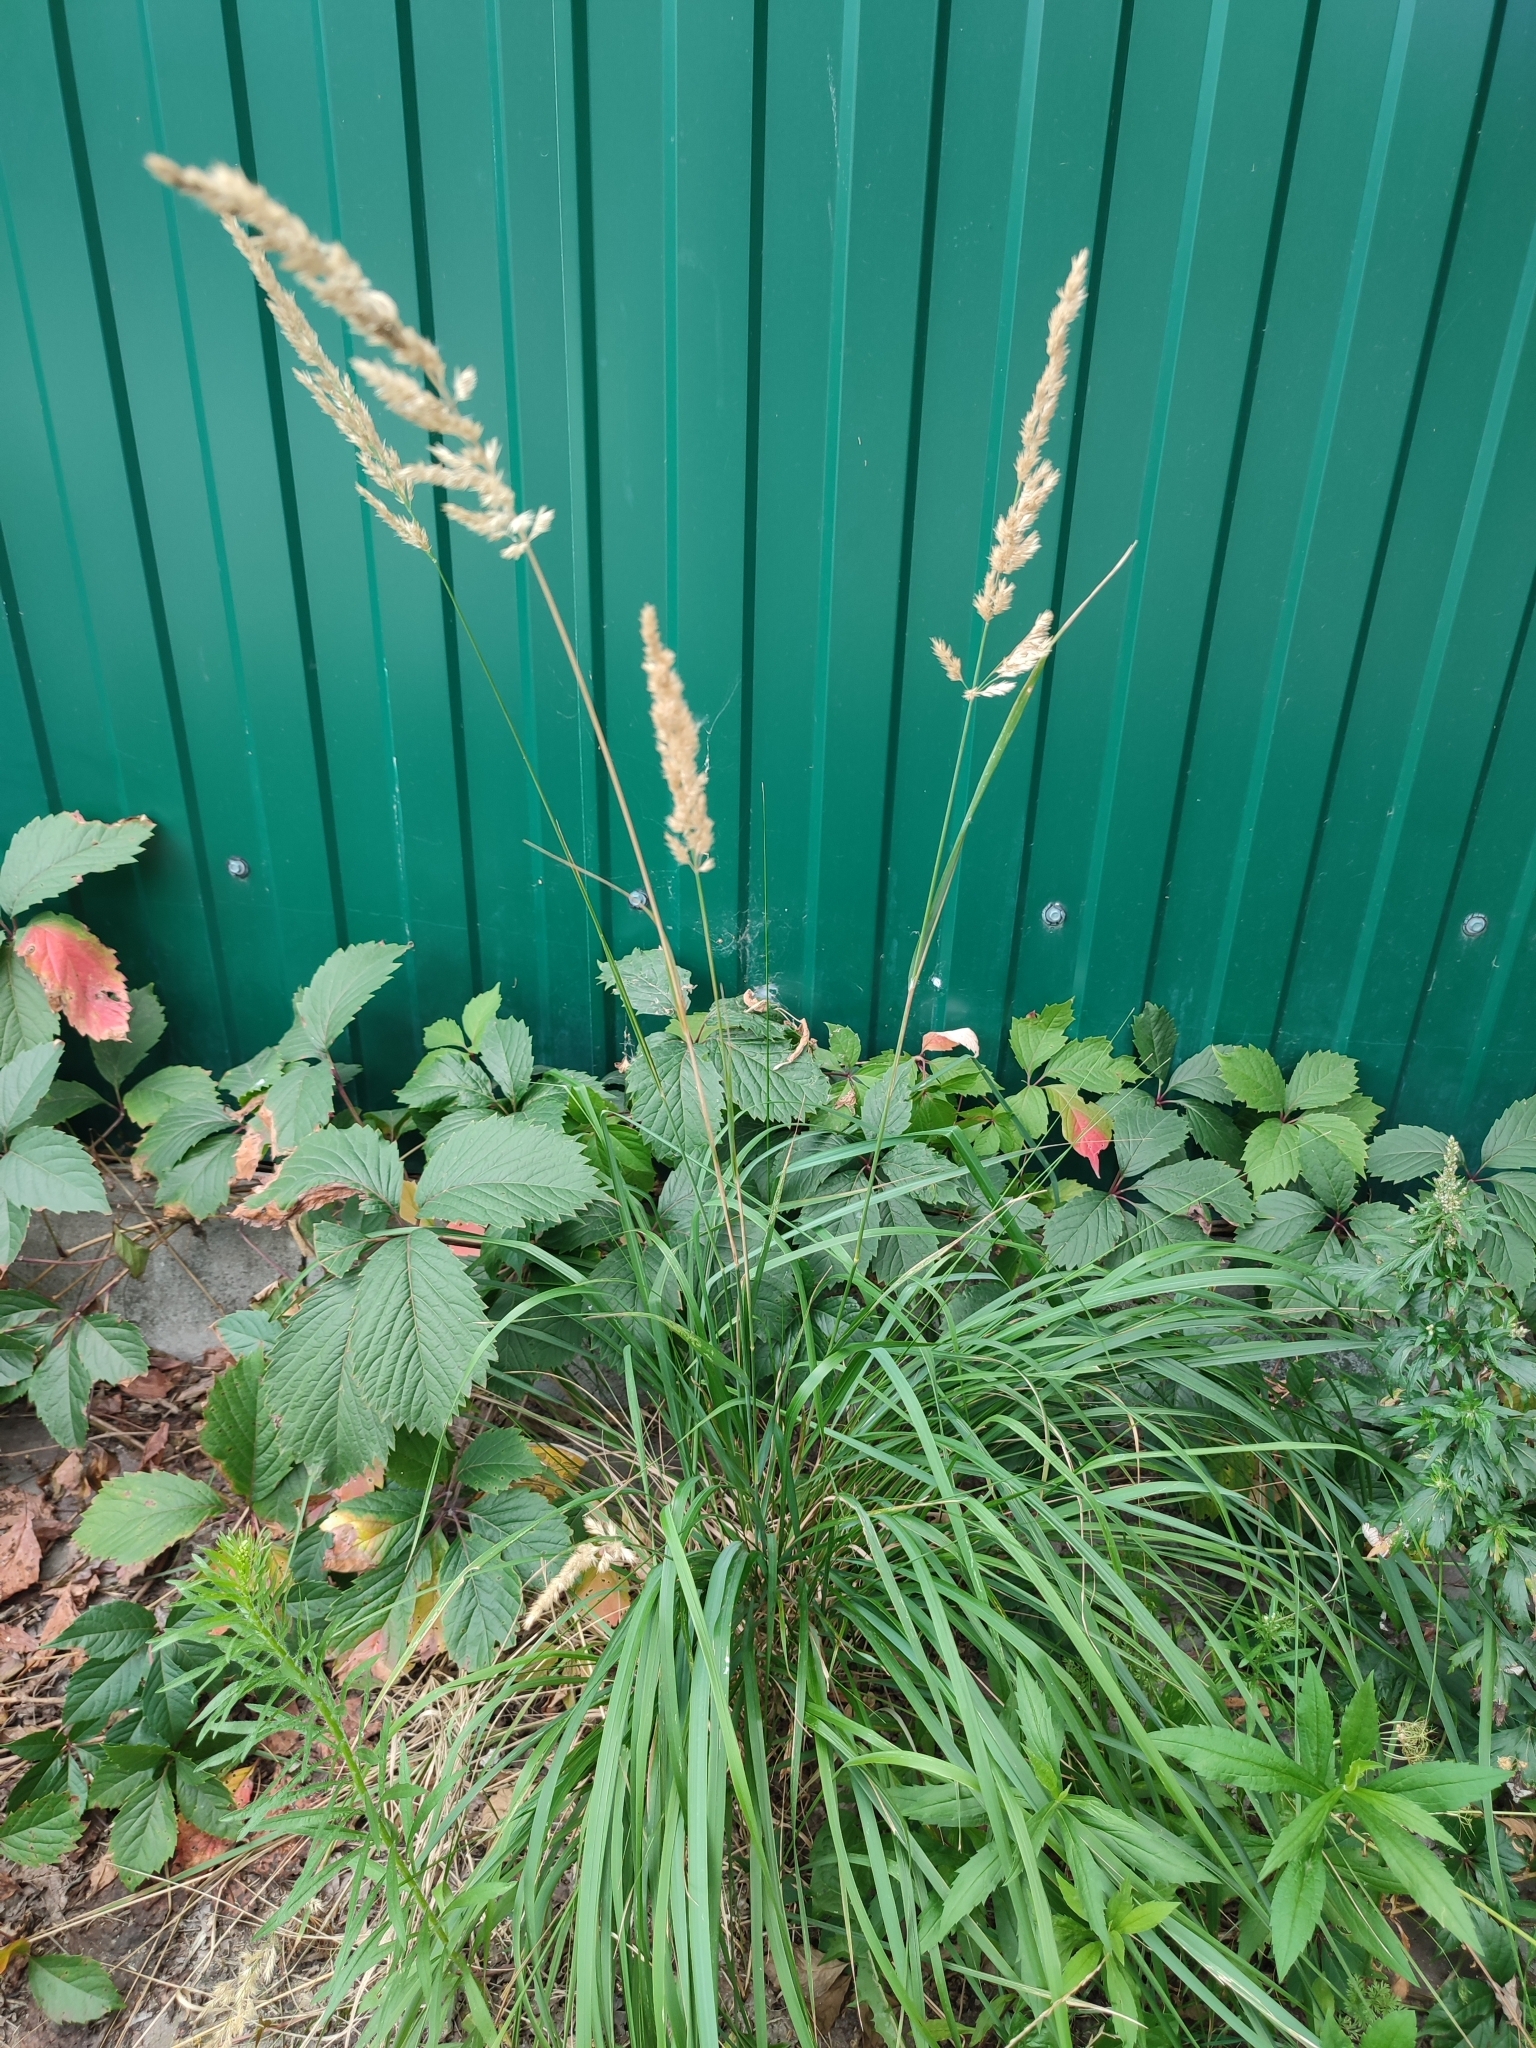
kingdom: Plantae
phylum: Tracheophyta
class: Liliopsida
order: Poales
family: Poaceae
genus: Calamagrostis
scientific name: Calamagrostis epigejos
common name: Wood small-reed
